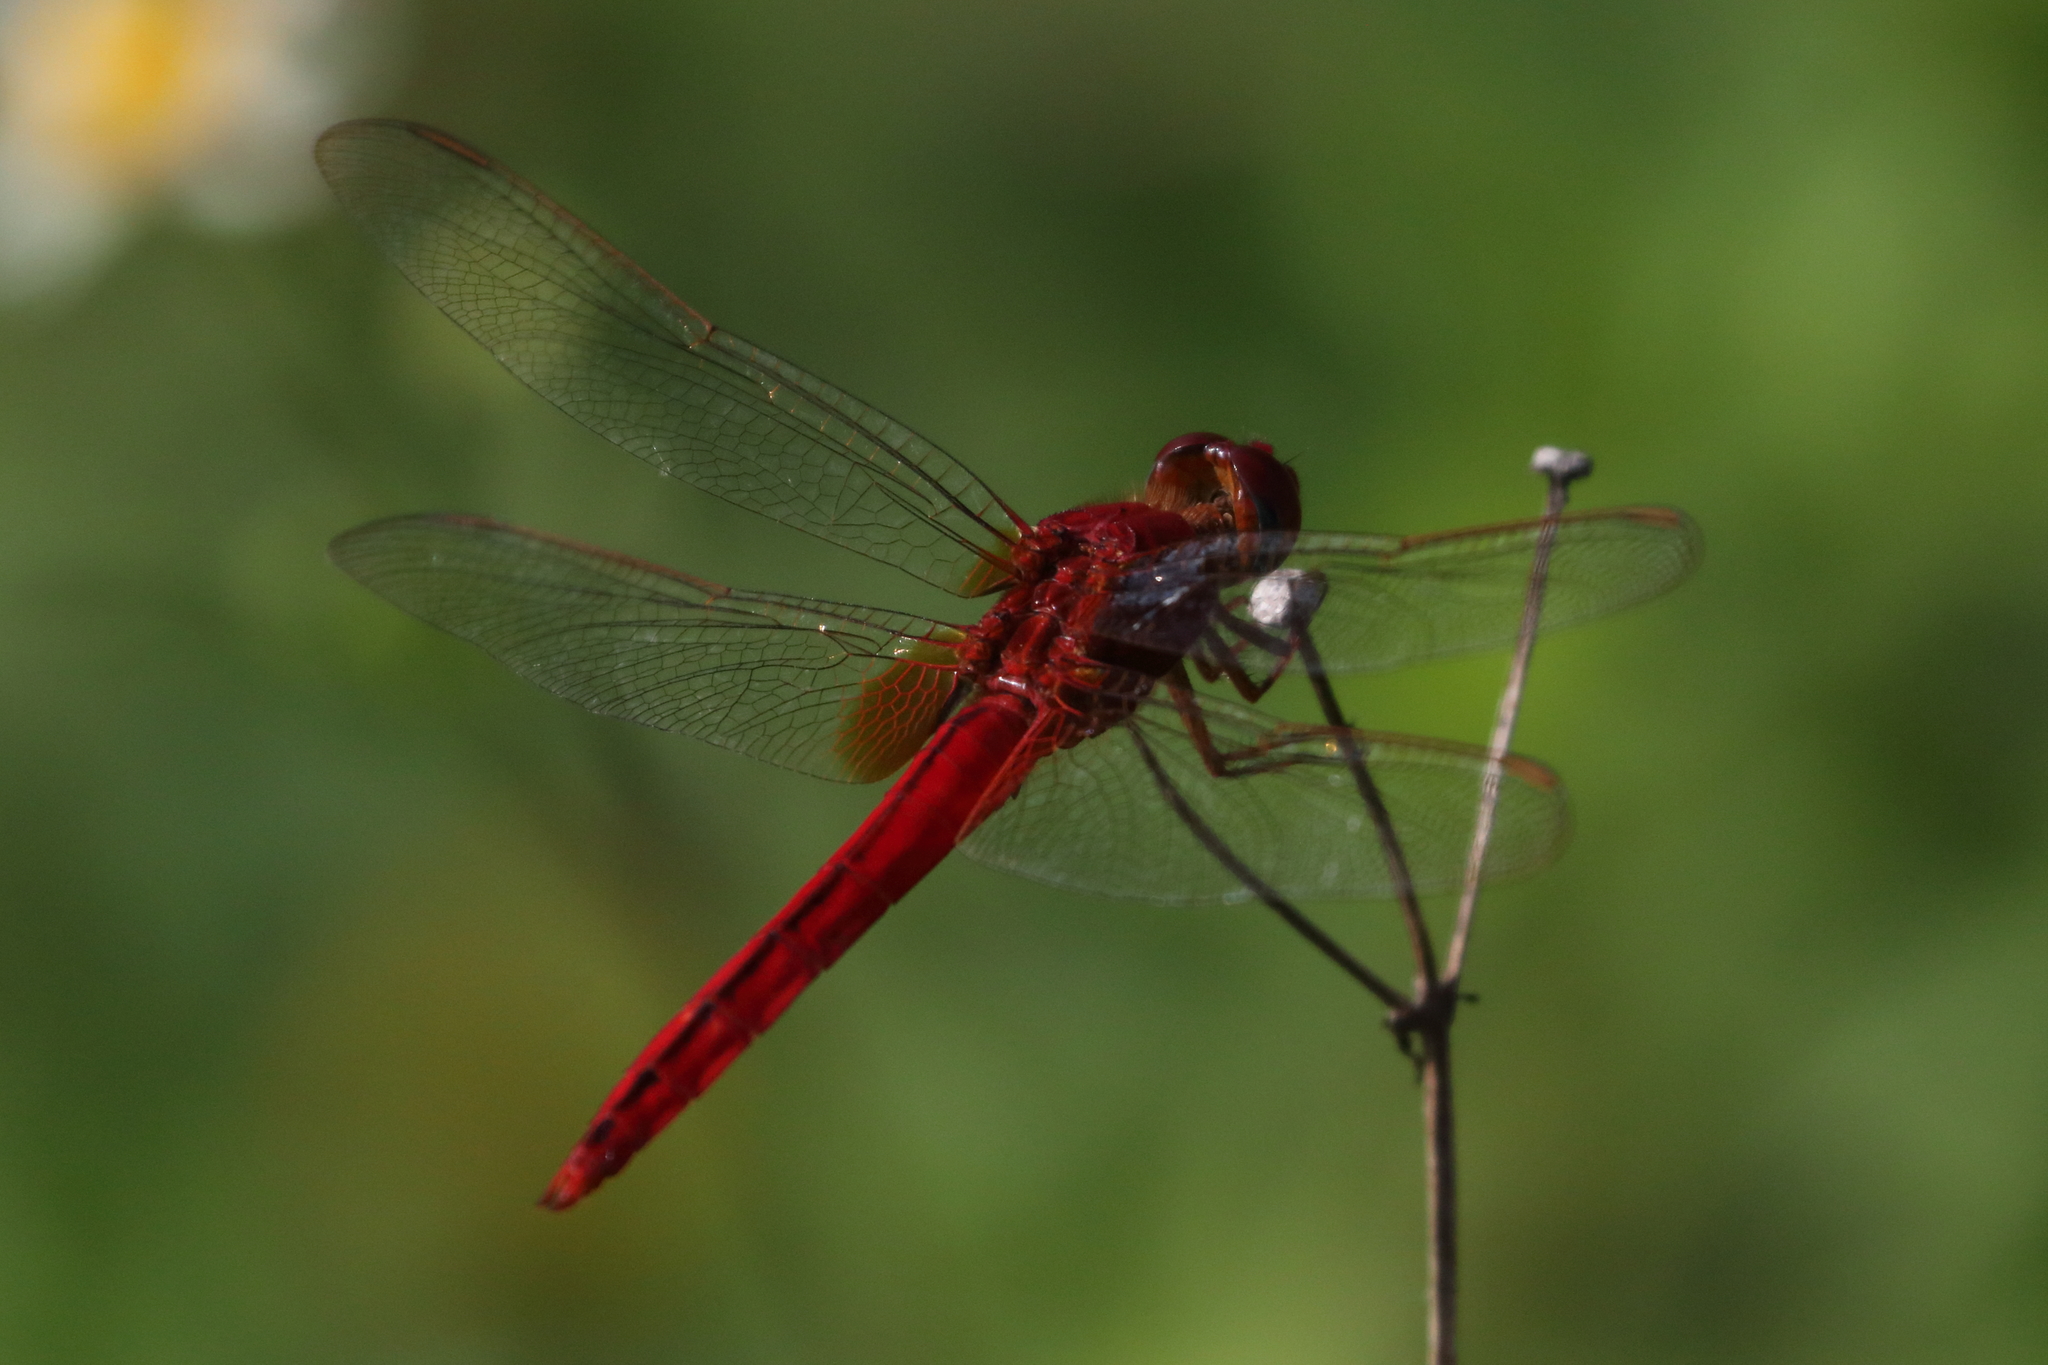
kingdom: Animalia
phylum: Arthropoda
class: Insecta
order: Odonata
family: Libellulidae
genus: Crocothemis
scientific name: Crocothemis servilia
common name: Scarlet skimmer
